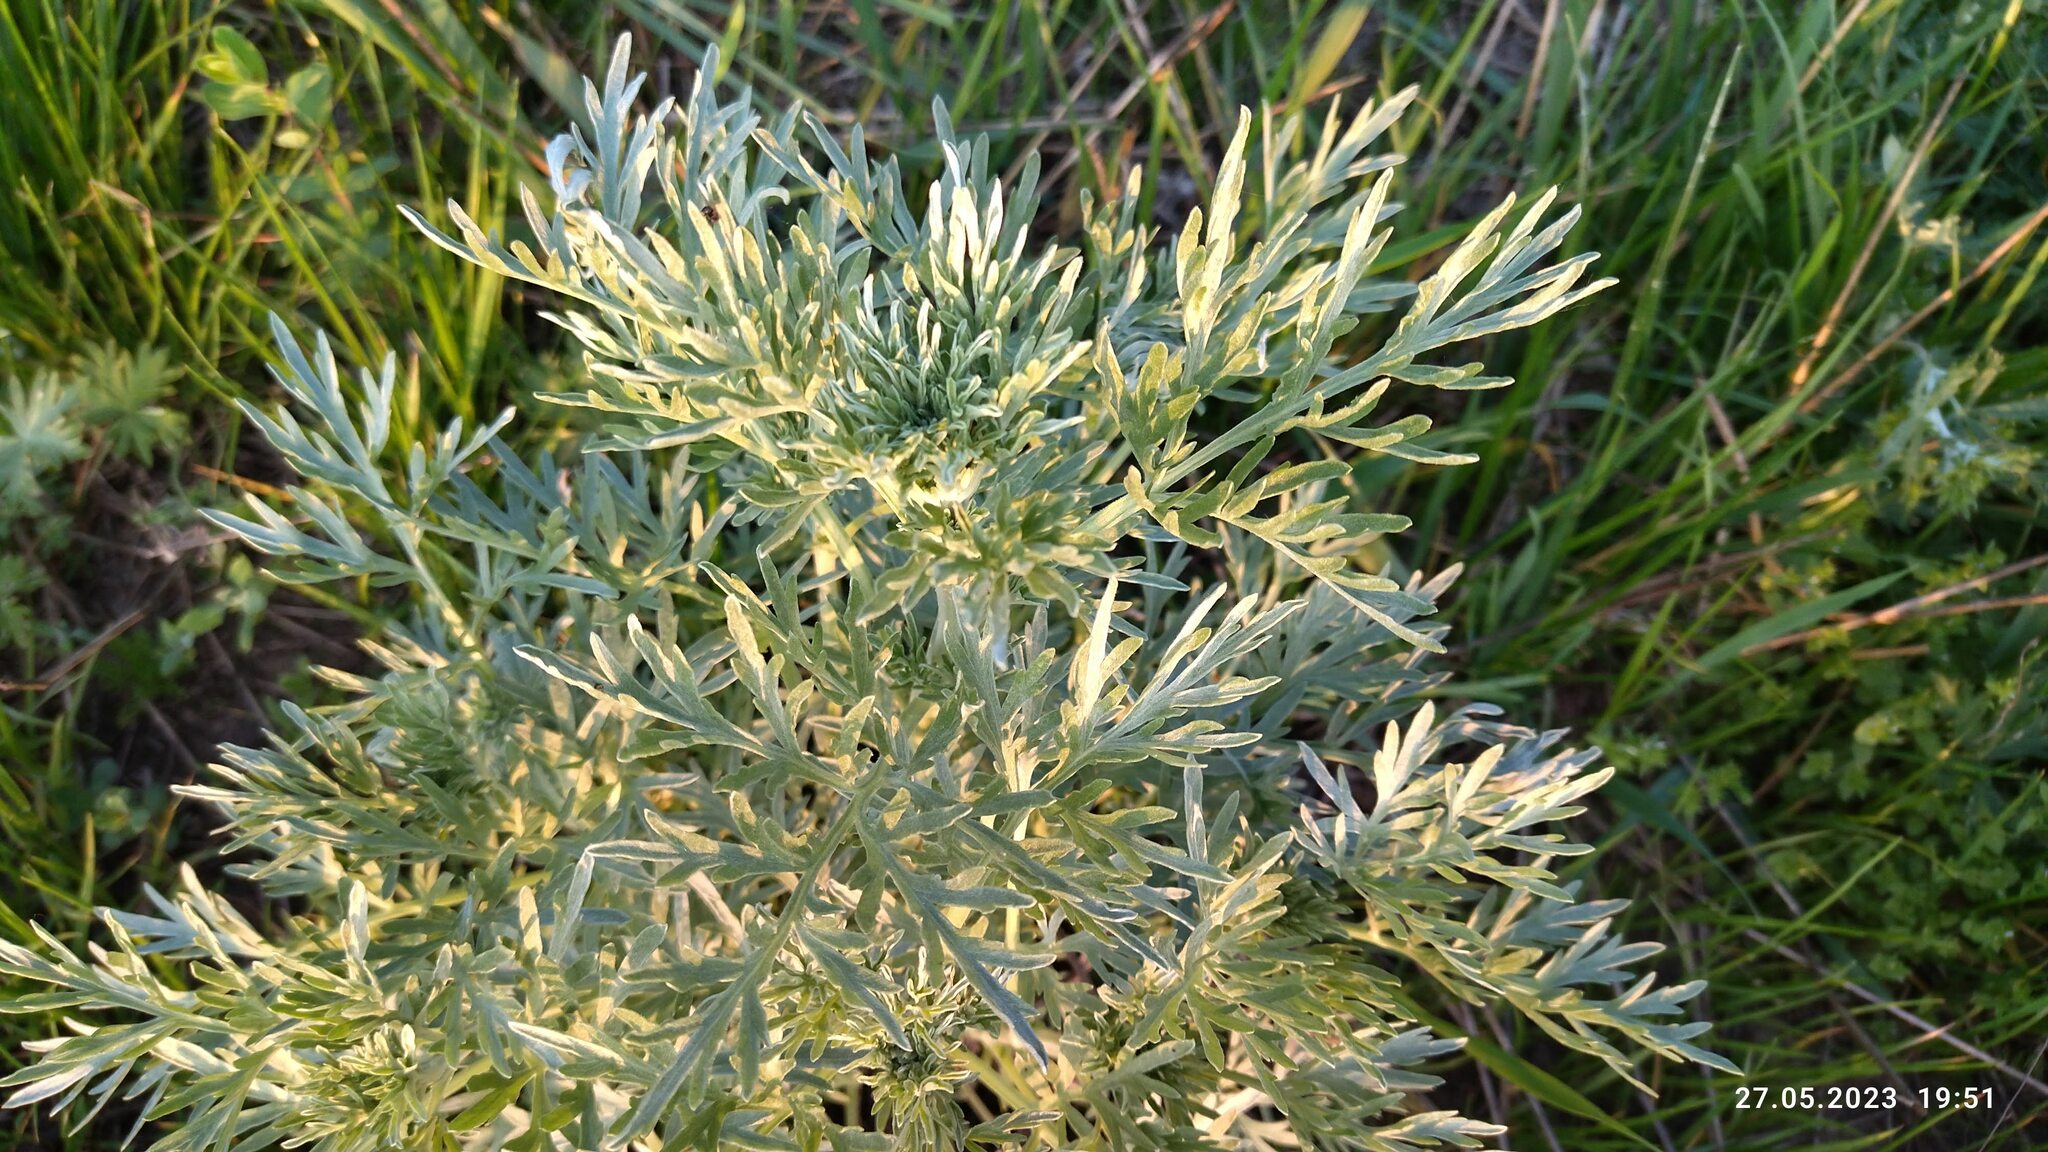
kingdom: Plantae
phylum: Tracheophyta
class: Magnoliopsida
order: Asterales
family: Asteraceae
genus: Artemisia
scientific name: Artemisia absinthium
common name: Wormwood
